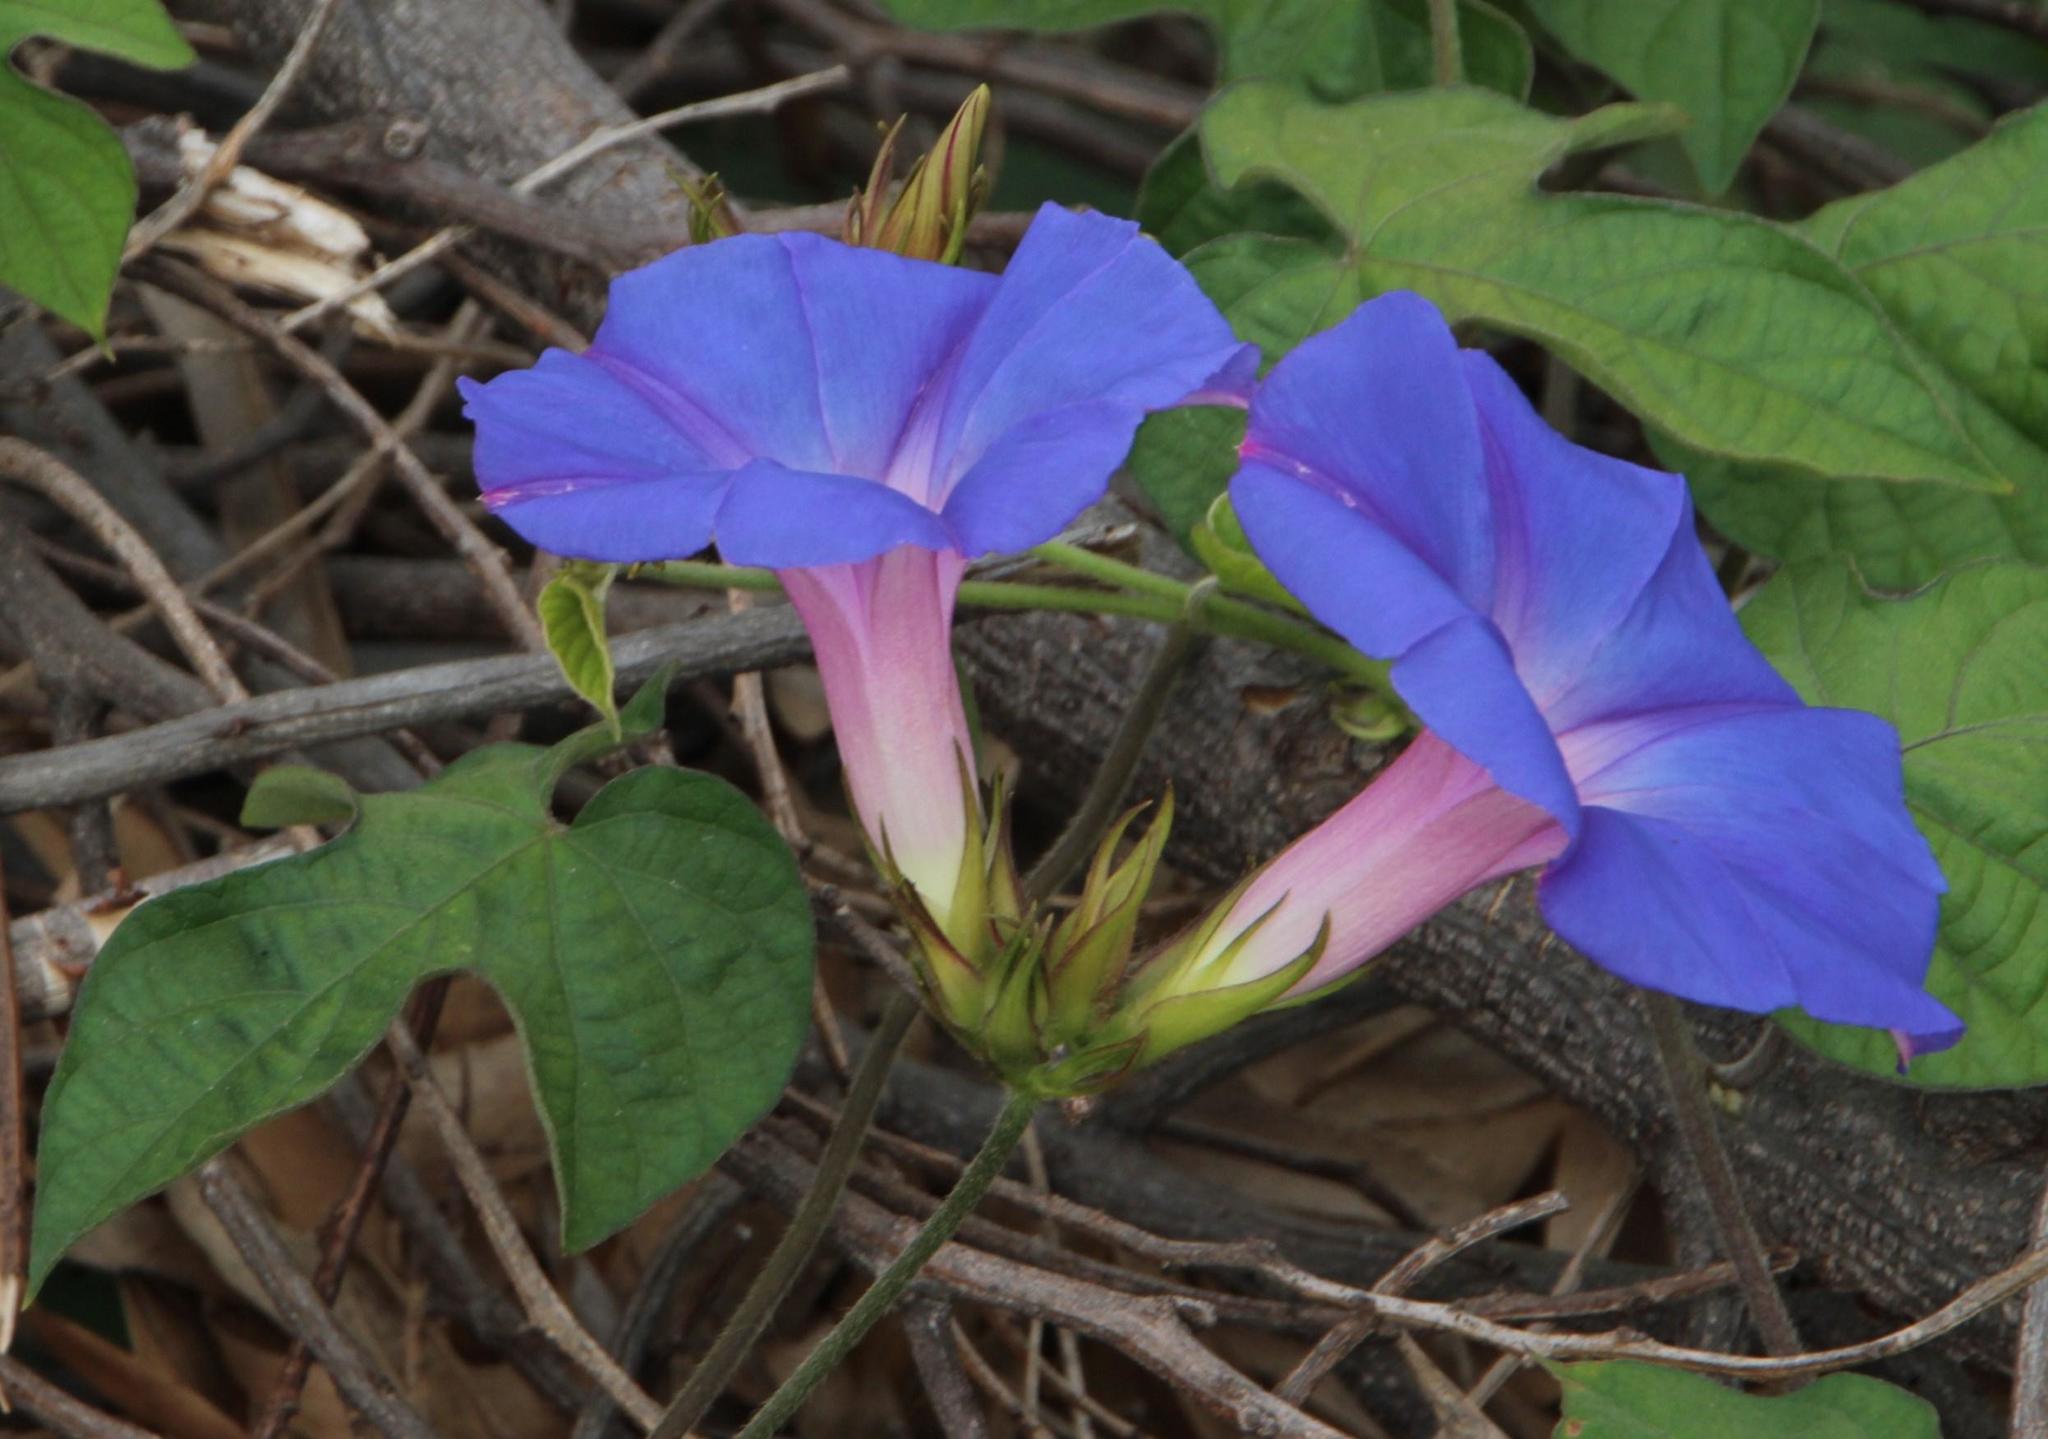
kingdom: Plantae
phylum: Tracheophyta
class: Magnoliopsida
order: Solanales
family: Convolvulaceae
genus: Ipomoea
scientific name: Ipomoea indica
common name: Blue dawnflower
